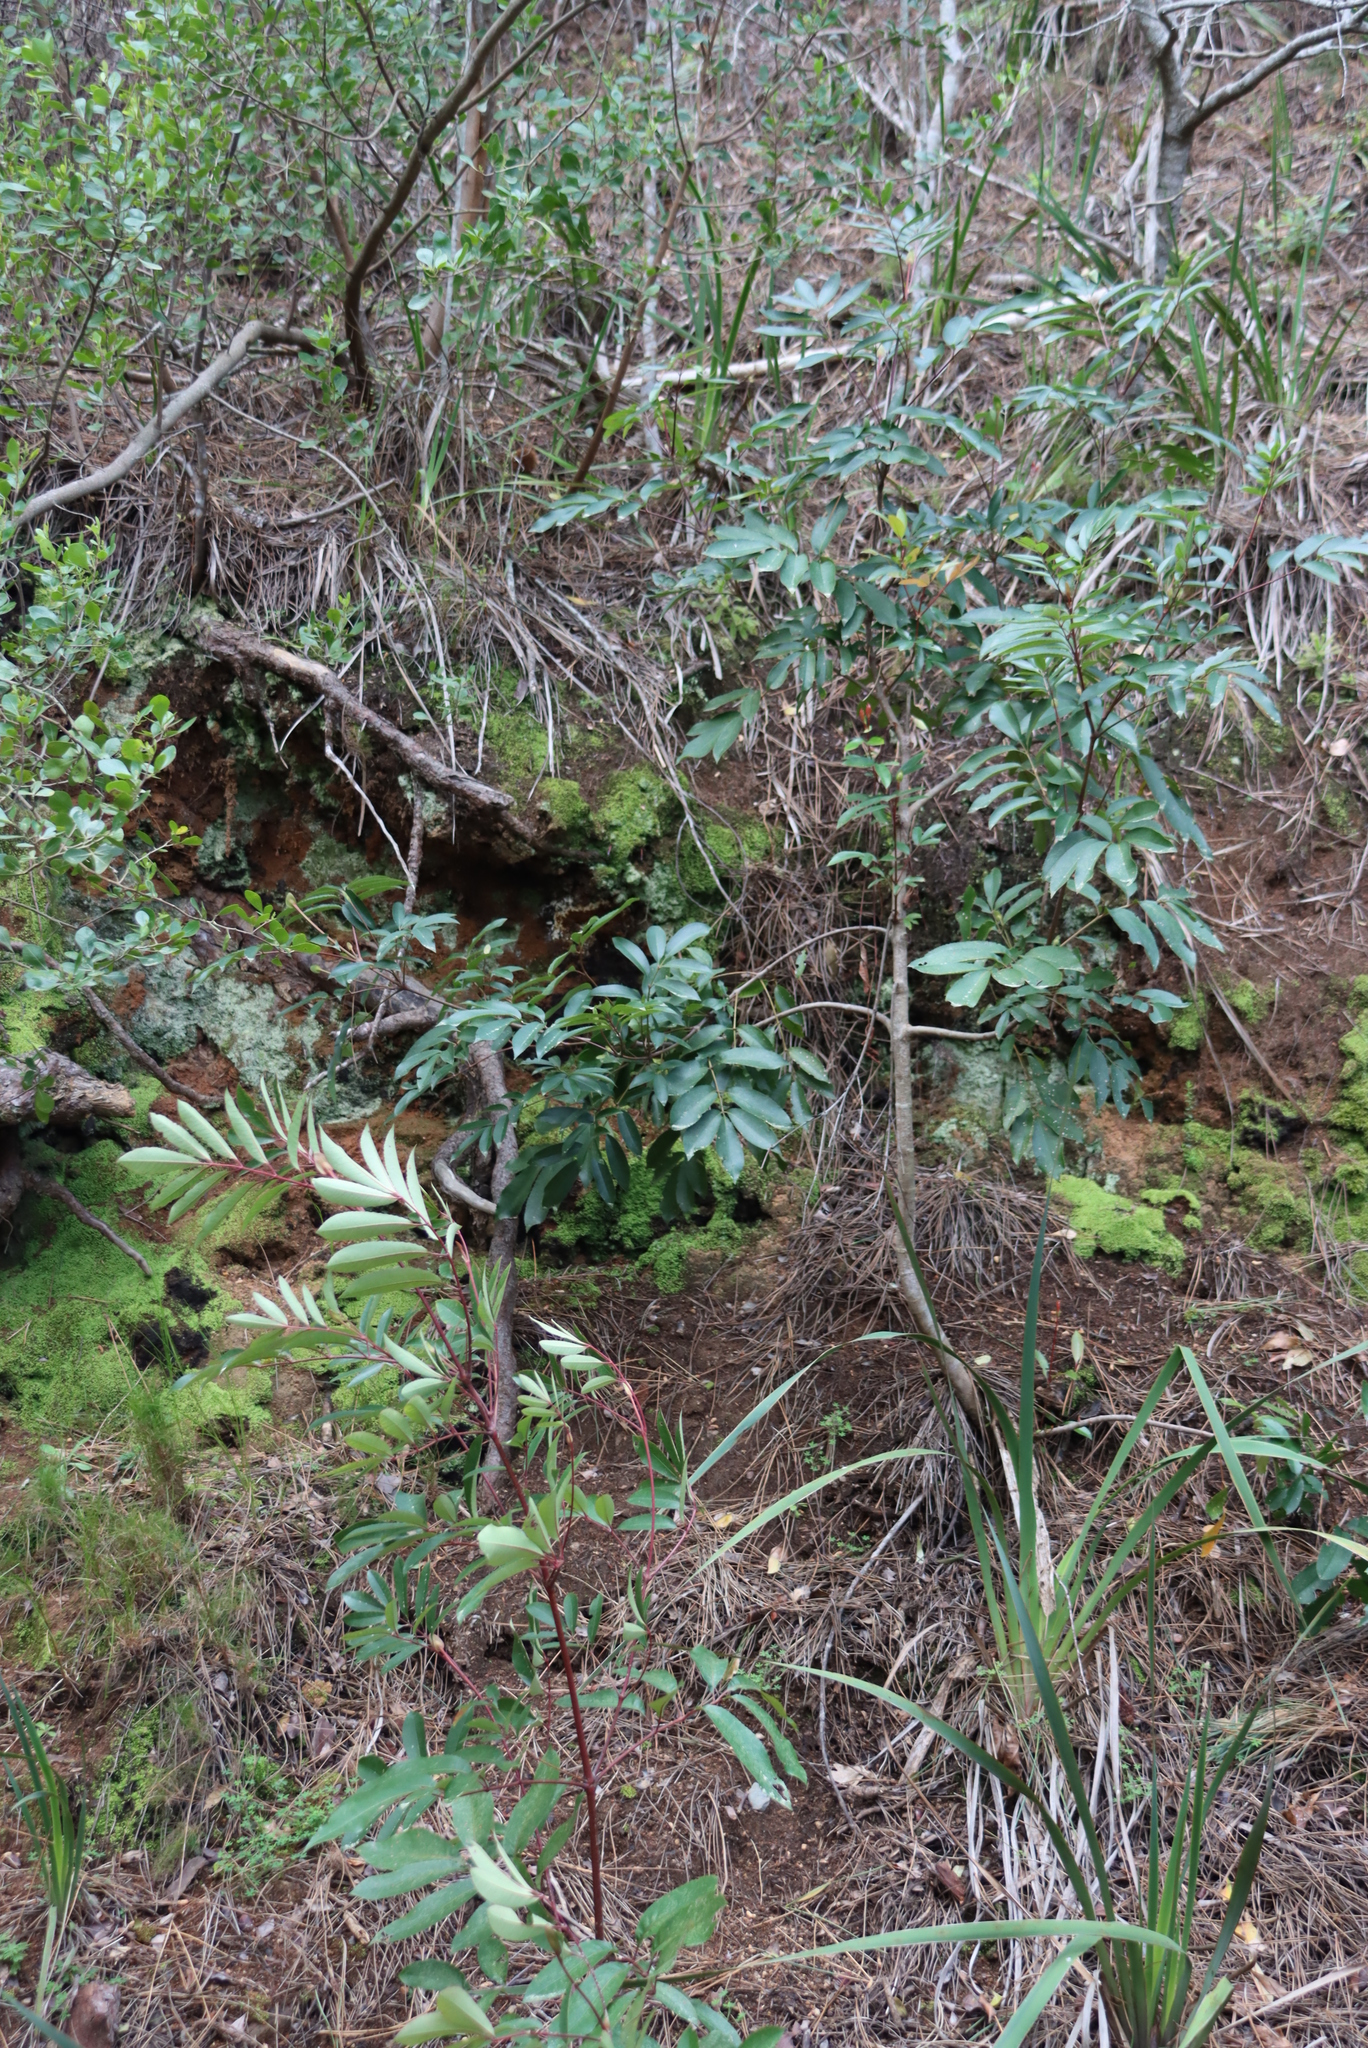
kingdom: Plantae
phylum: Tracheophyta
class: Magnoliopsida
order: Oxalidales
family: Cunoniaceae
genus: Cunonia
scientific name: Cunonia capensis
